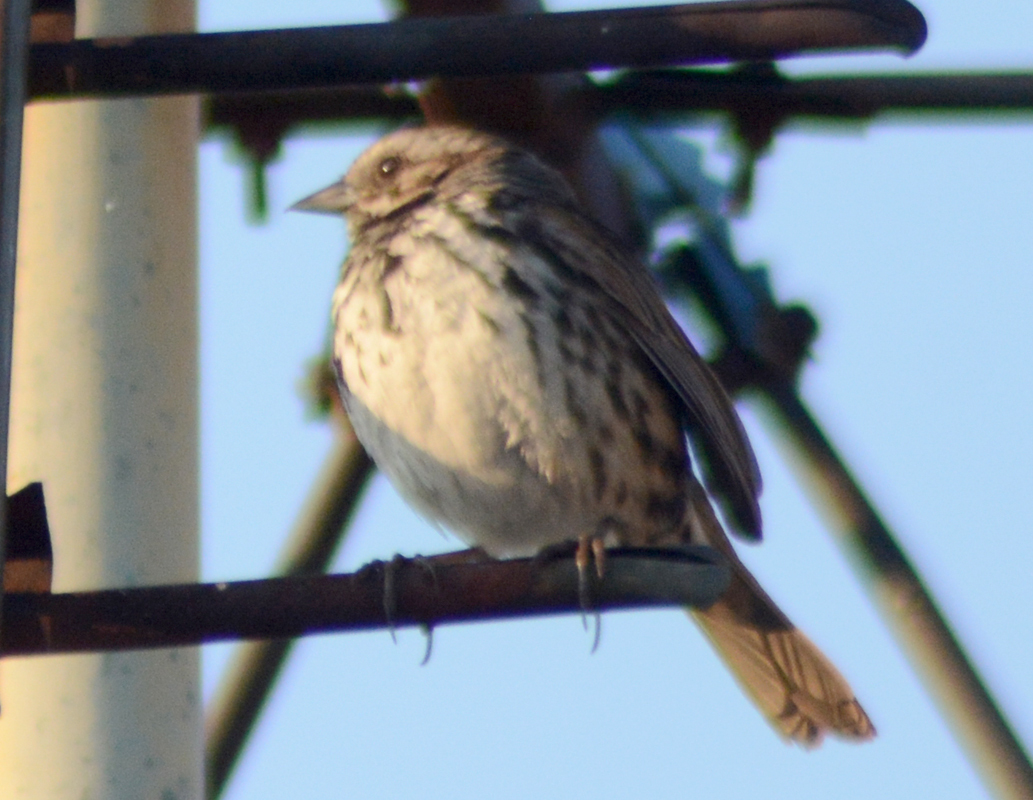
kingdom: Animalia
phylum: Chordata
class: Aves
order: Passeriformes
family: Passerellidae
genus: Melospiza
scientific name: Melospiza melodia
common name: Song sparrow
